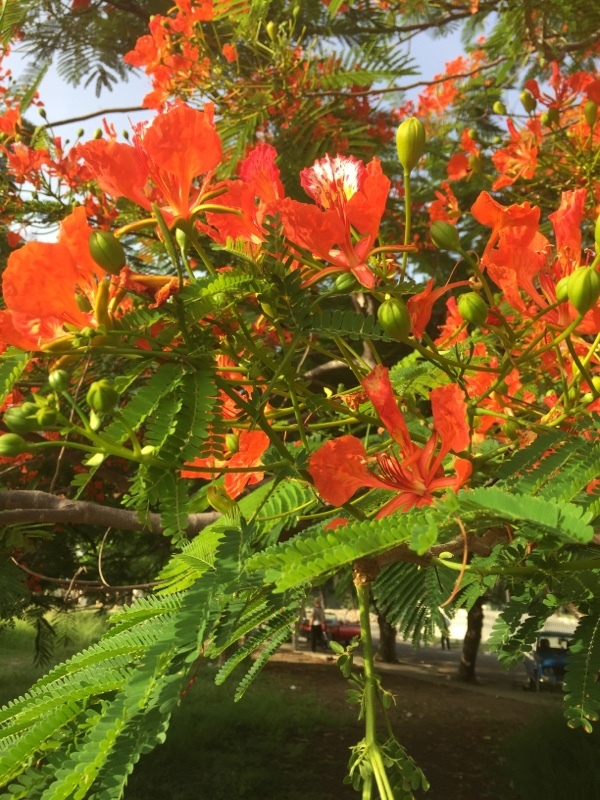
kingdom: Plantae
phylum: Tracheophyta
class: Magnoliopsida
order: Fabales
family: Fabaceae
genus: Delonix
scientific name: Delonix regia
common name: Royal poinciana
